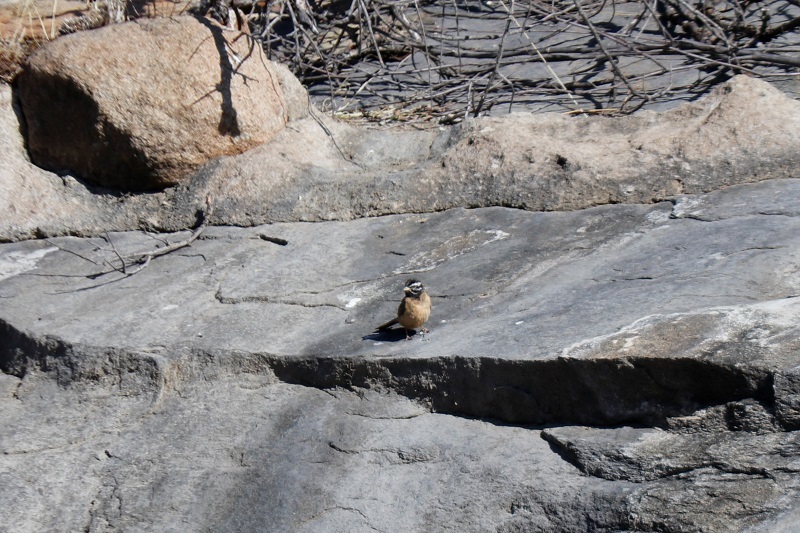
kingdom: Animalia
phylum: Chordata
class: Aves
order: Passeriformes
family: Emberizidae
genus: Emberiza
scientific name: Emberiza tahapisi
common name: Cinnamon-breasted bunting
